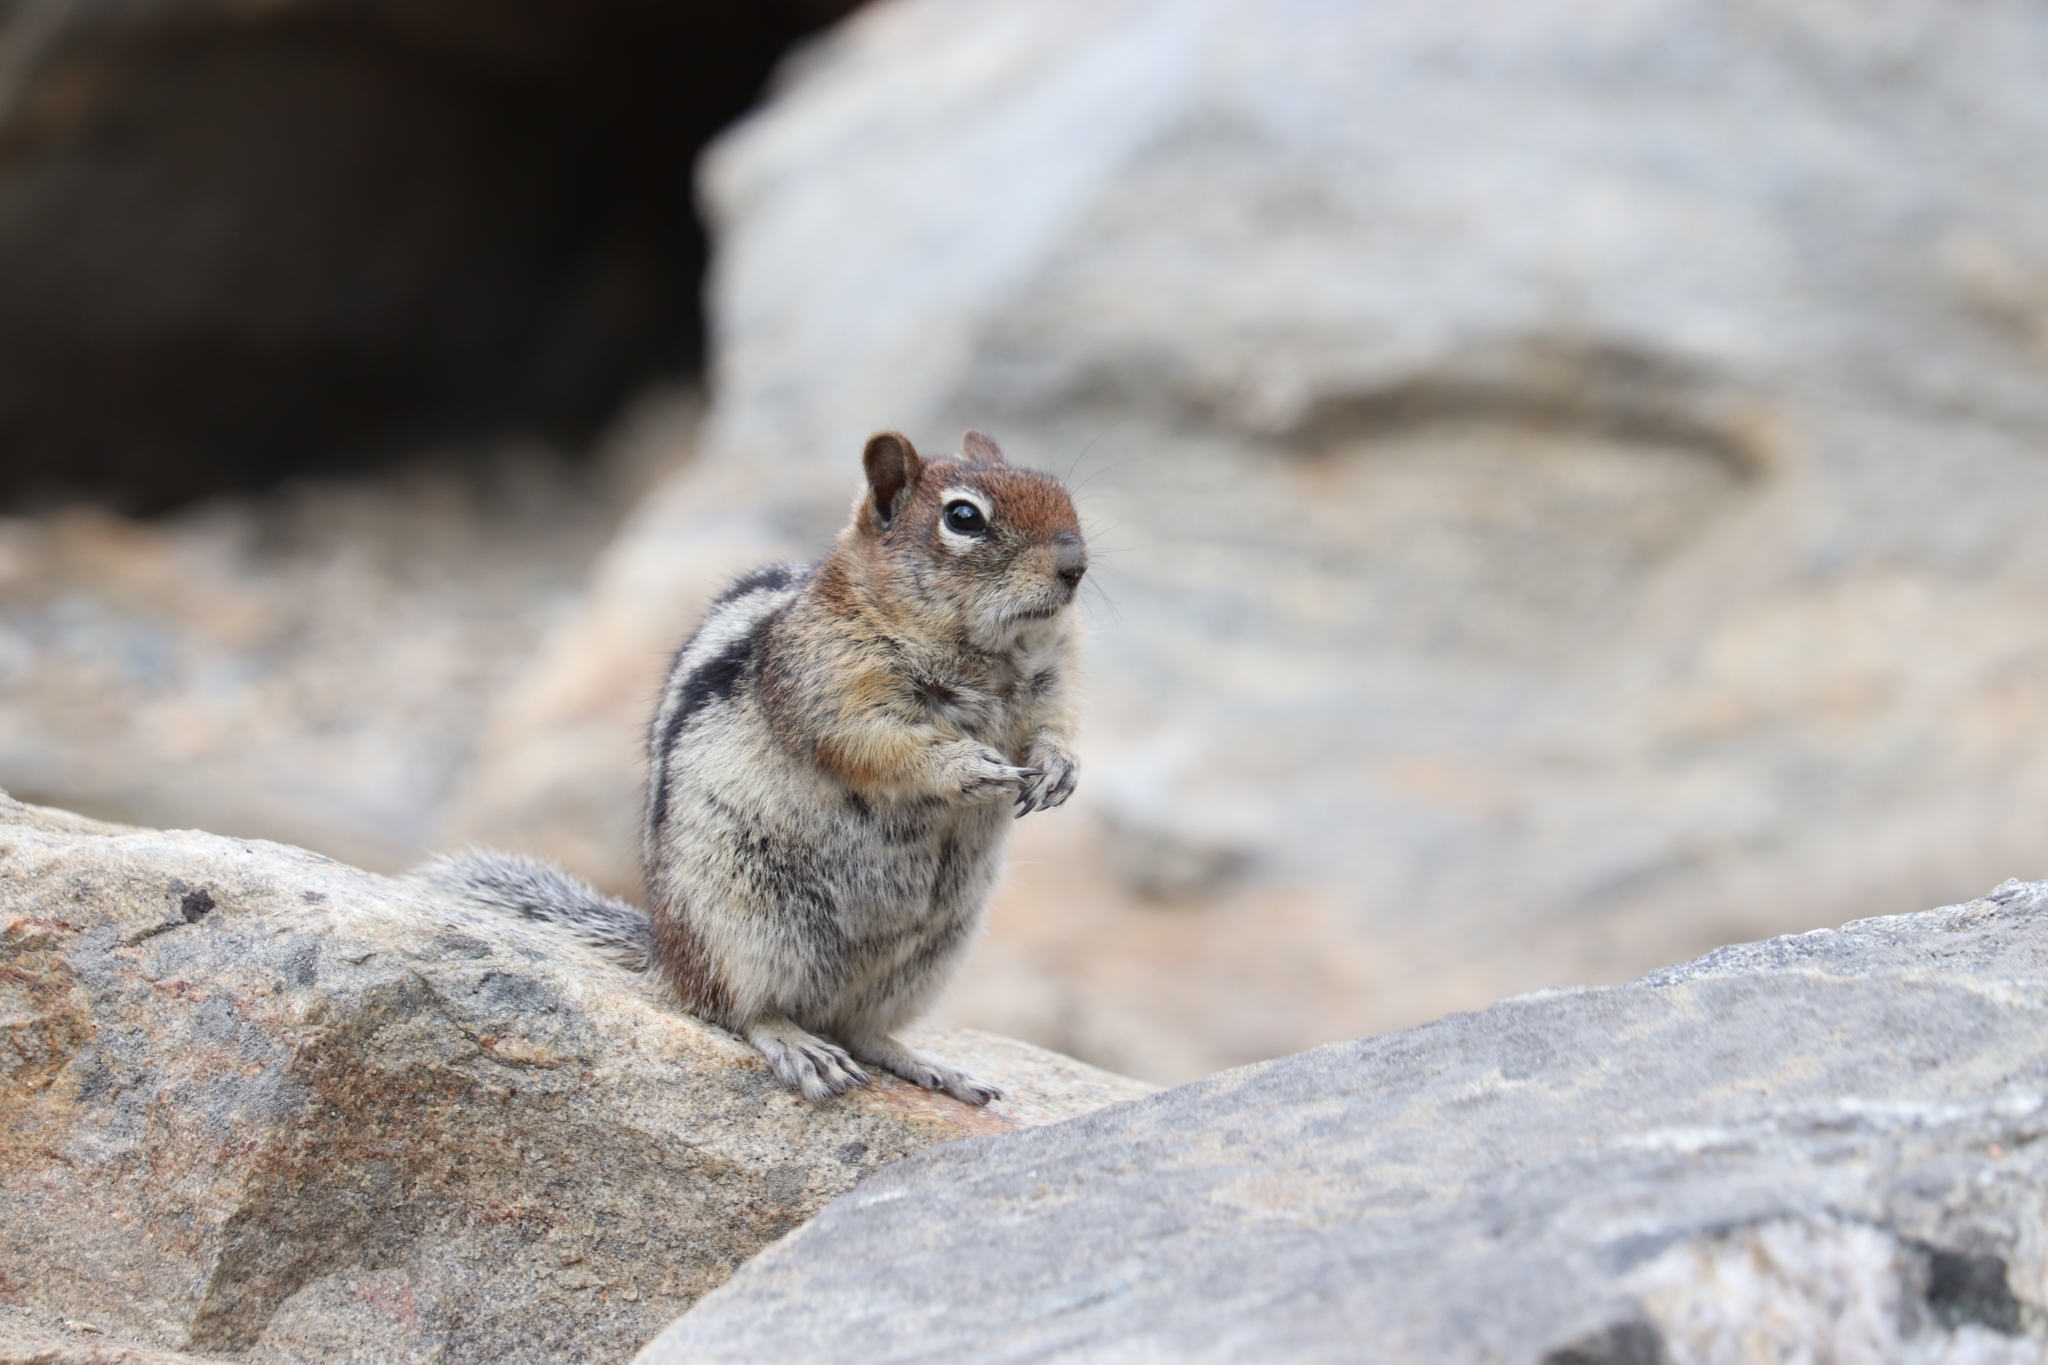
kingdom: Animalia
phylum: Chordata
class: Mammalia
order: Rodentia
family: Sciuridae
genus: Callospermophilus
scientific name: Callospermophilus lateralis
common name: Golden-mantled ground squirrel
